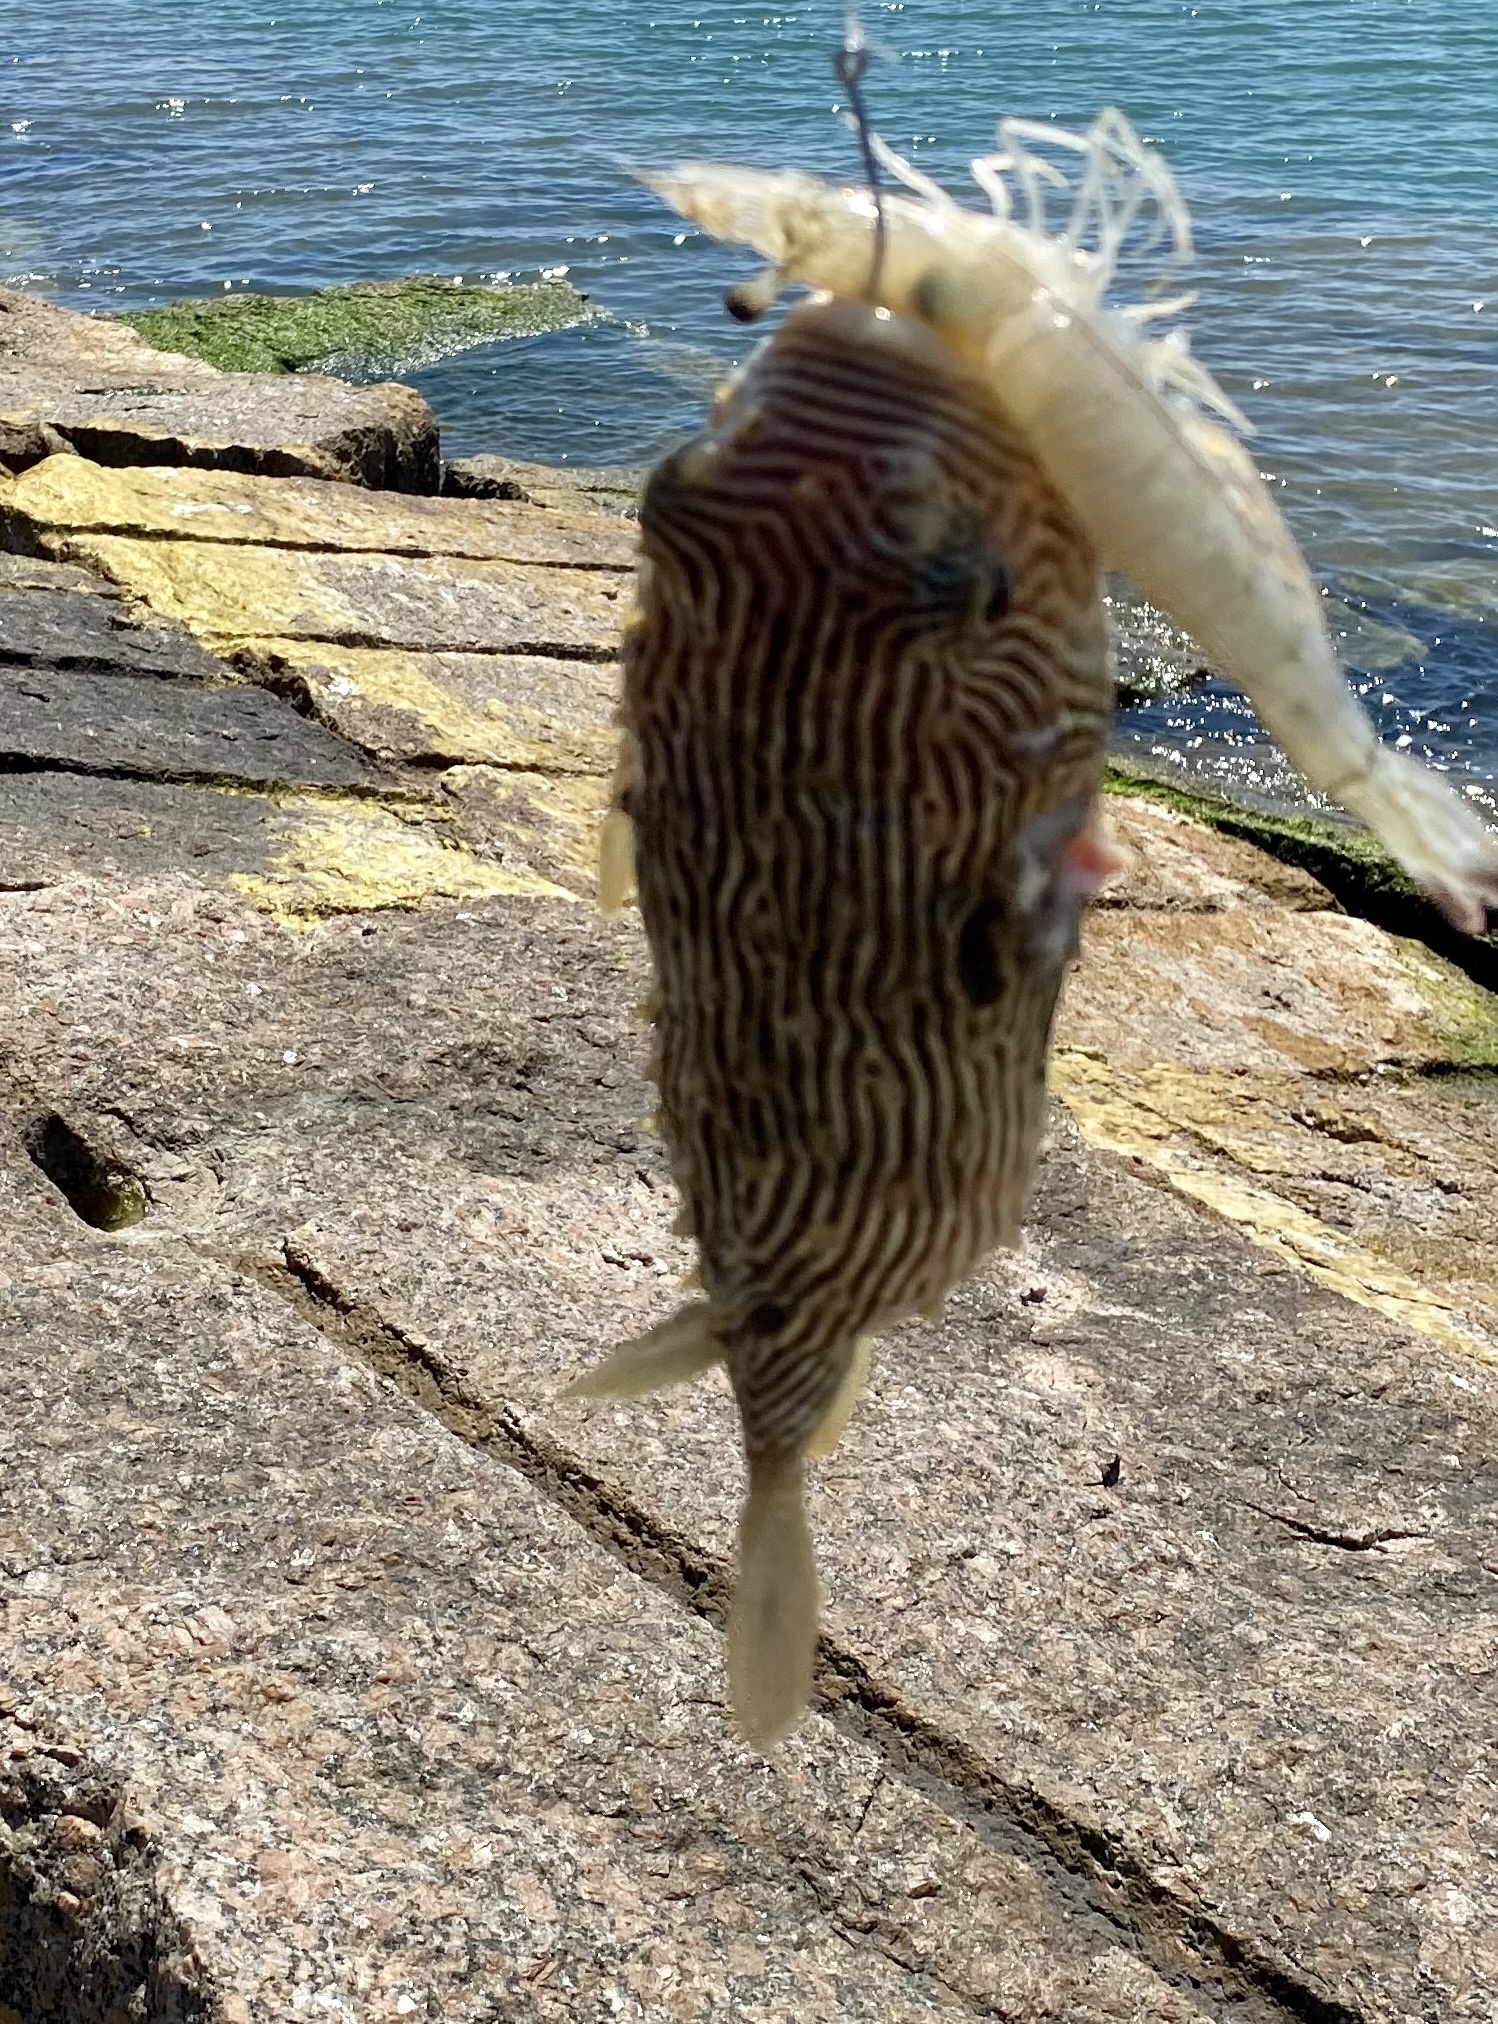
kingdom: Animalia
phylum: Chordata
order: Tetraodontiformes
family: Diodontidae
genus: Chilomycterus
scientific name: Chilomycterus schoepfii
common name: Striped burrfish
